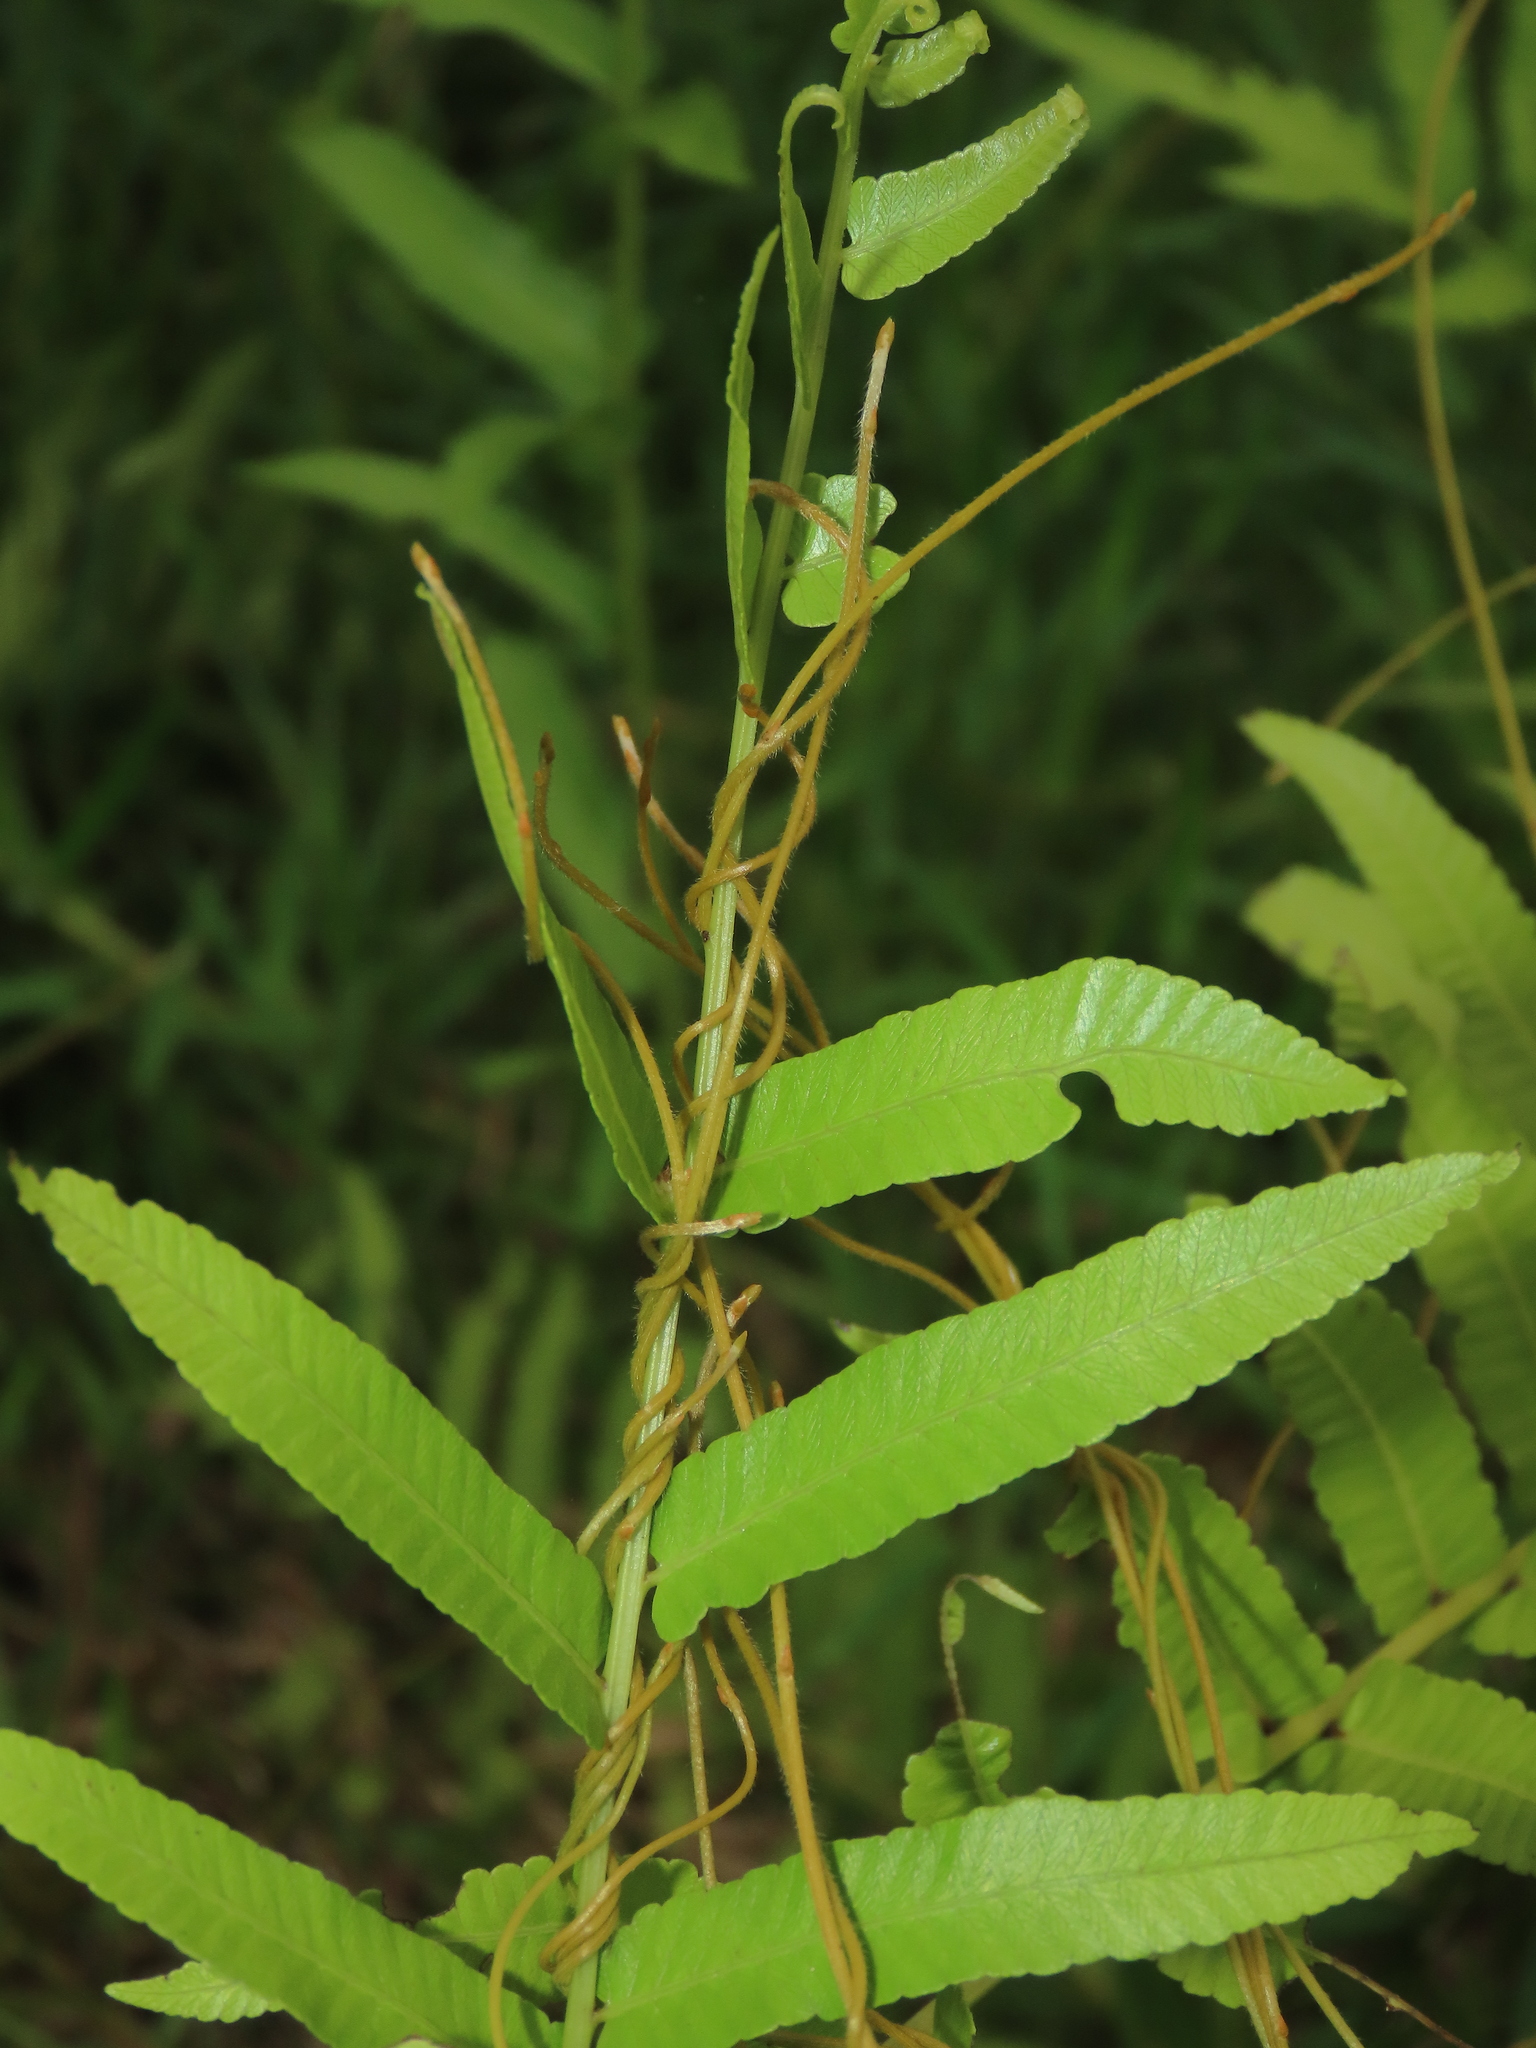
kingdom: Plantae
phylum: Tracheophyta
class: Polypodiopsida
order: Polypodiales
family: Thelypteridaceae
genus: Ampelopteris
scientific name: Ampelopteris prolifera
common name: Riverine scrambler
